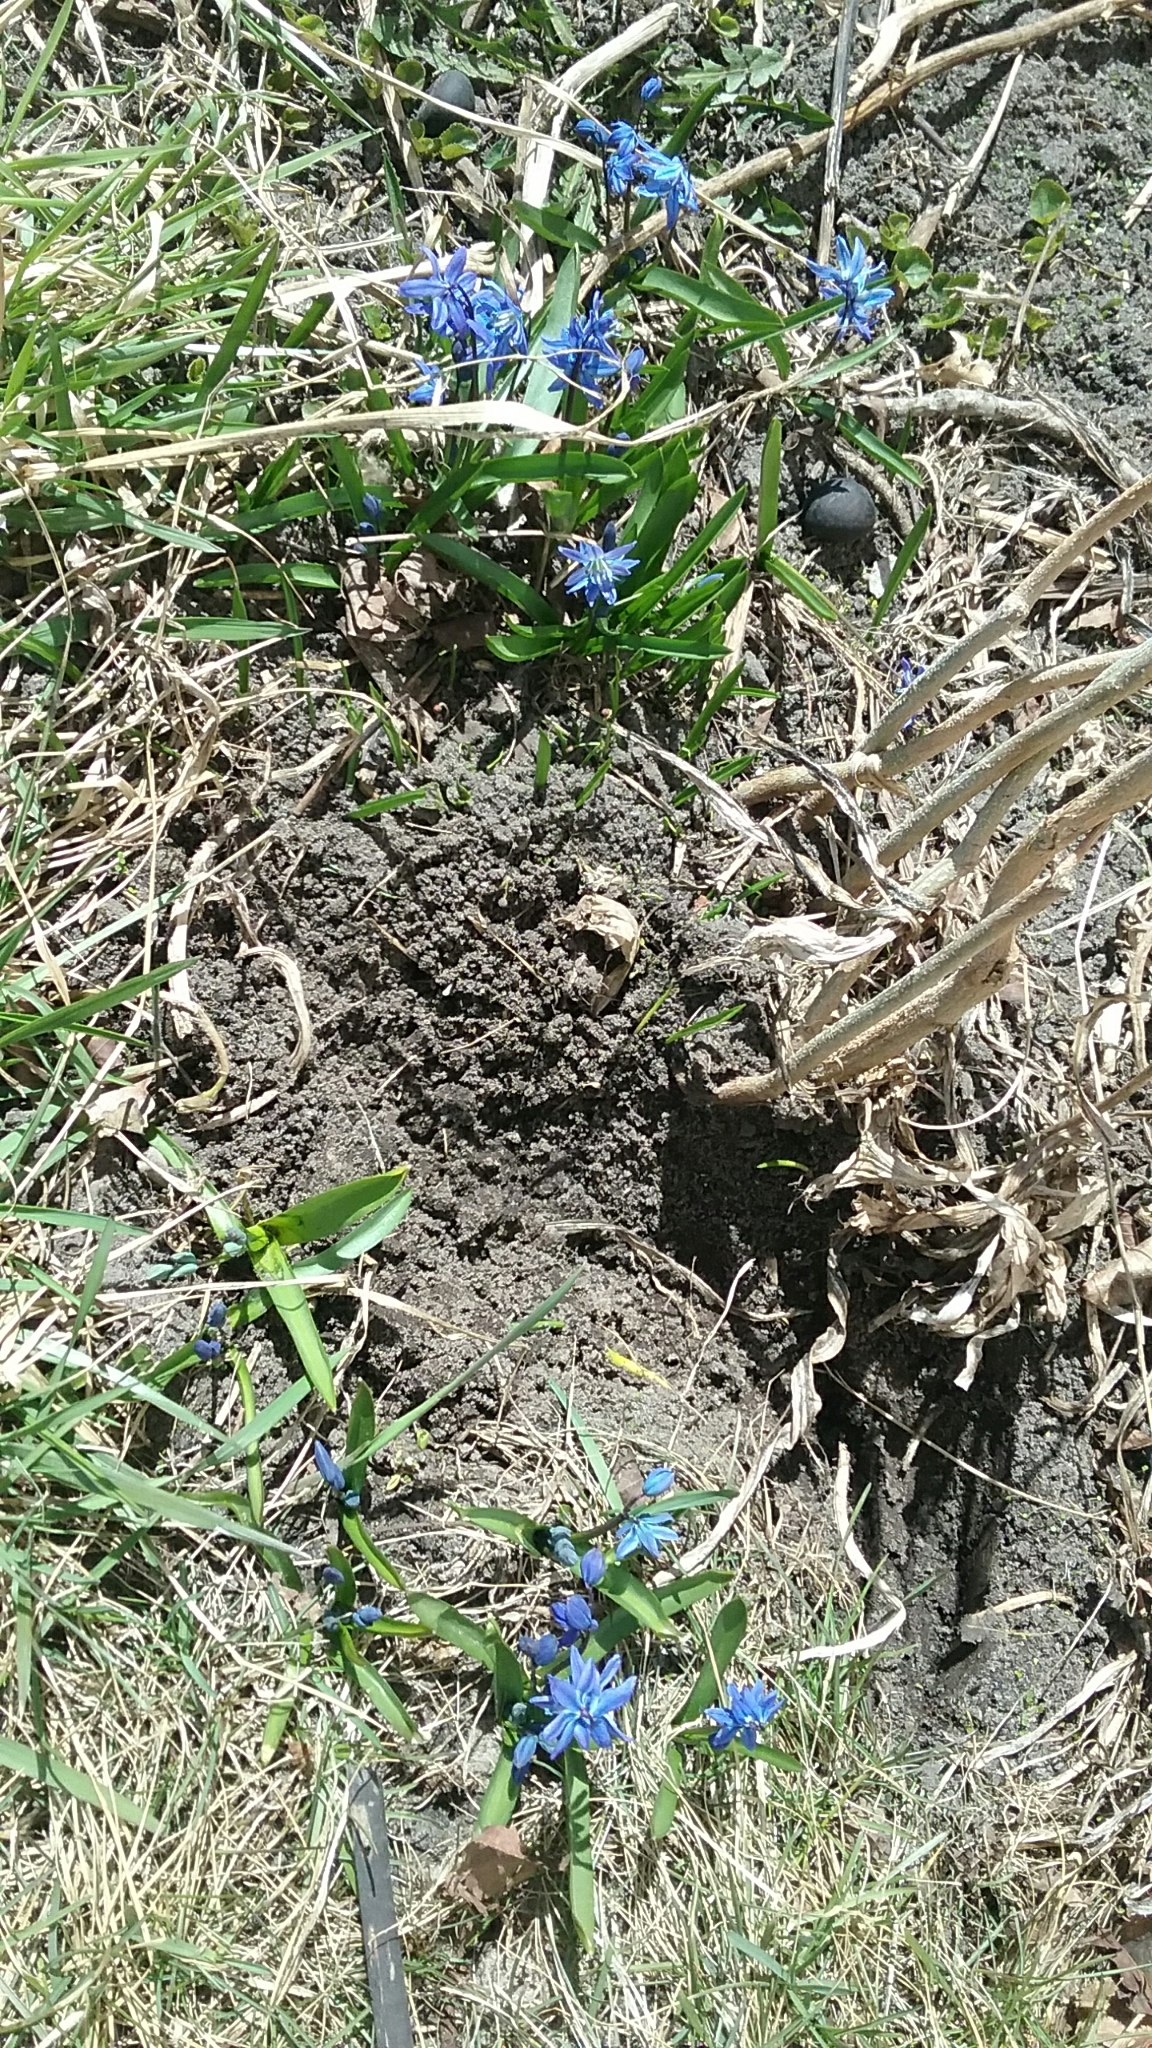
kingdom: Plantae
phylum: Tracheophyta
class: Liliopsida
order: Asparagales
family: Asparagaceae
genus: Scilla
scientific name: Scilla siberica
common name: Siberian squill
